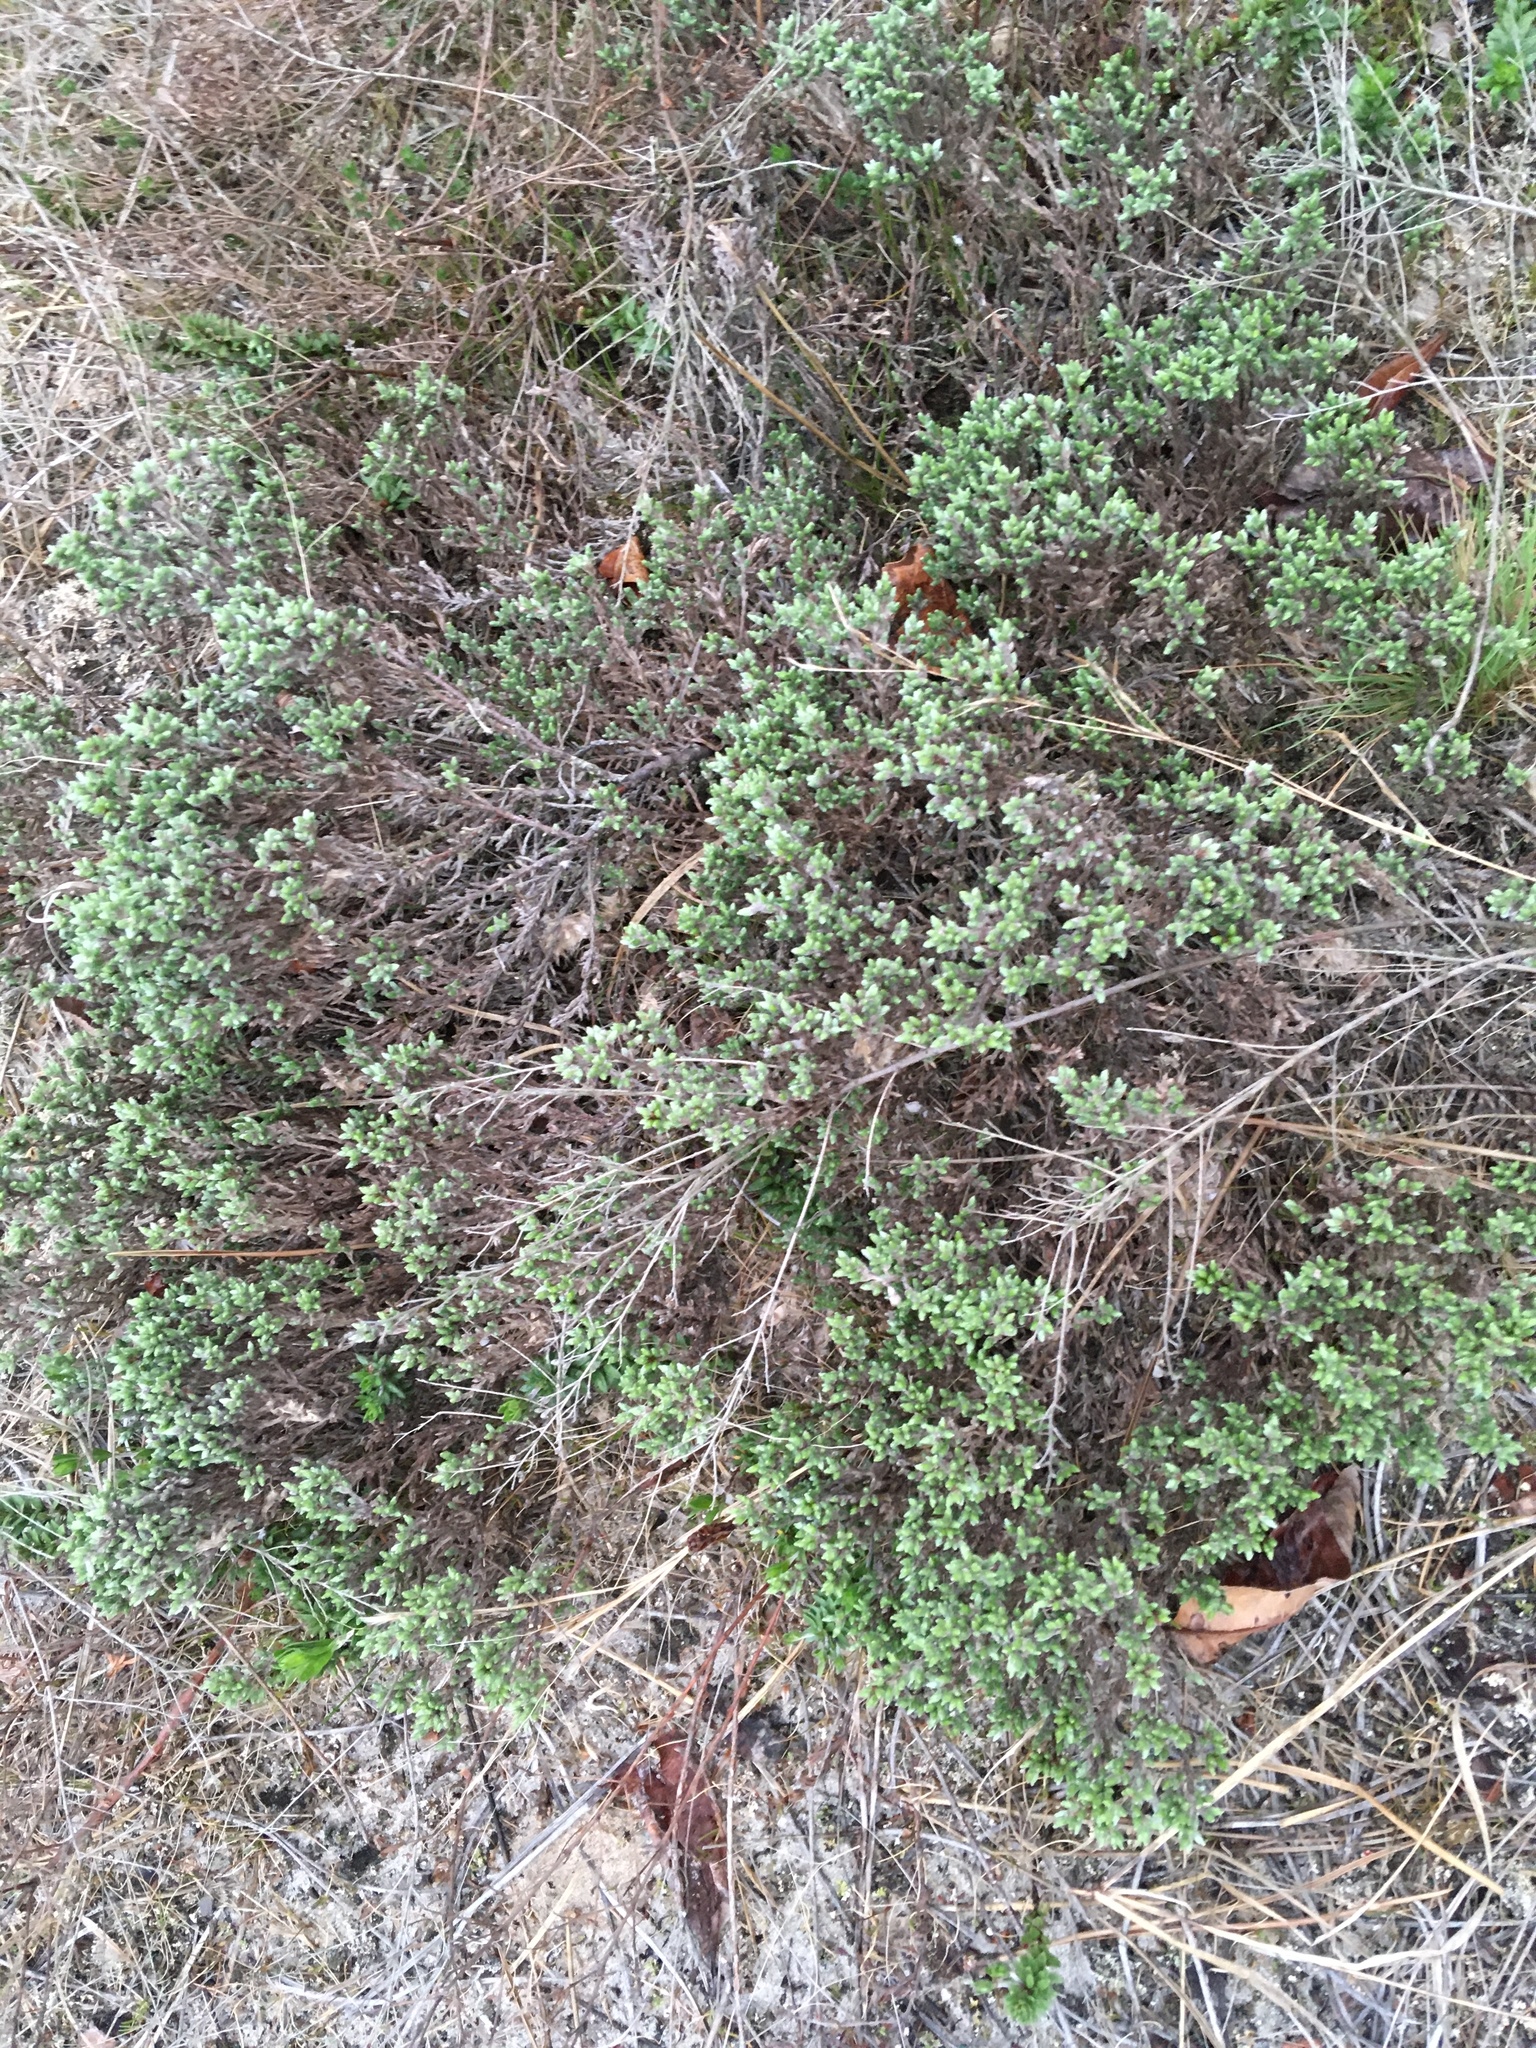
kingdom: Plantae
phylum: Tracheophyta
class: Magnoliopsida
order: Malvales
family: Cistaceae
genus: Hudsonia
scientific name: Hudsonia tomentosa
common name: Beach-heath
